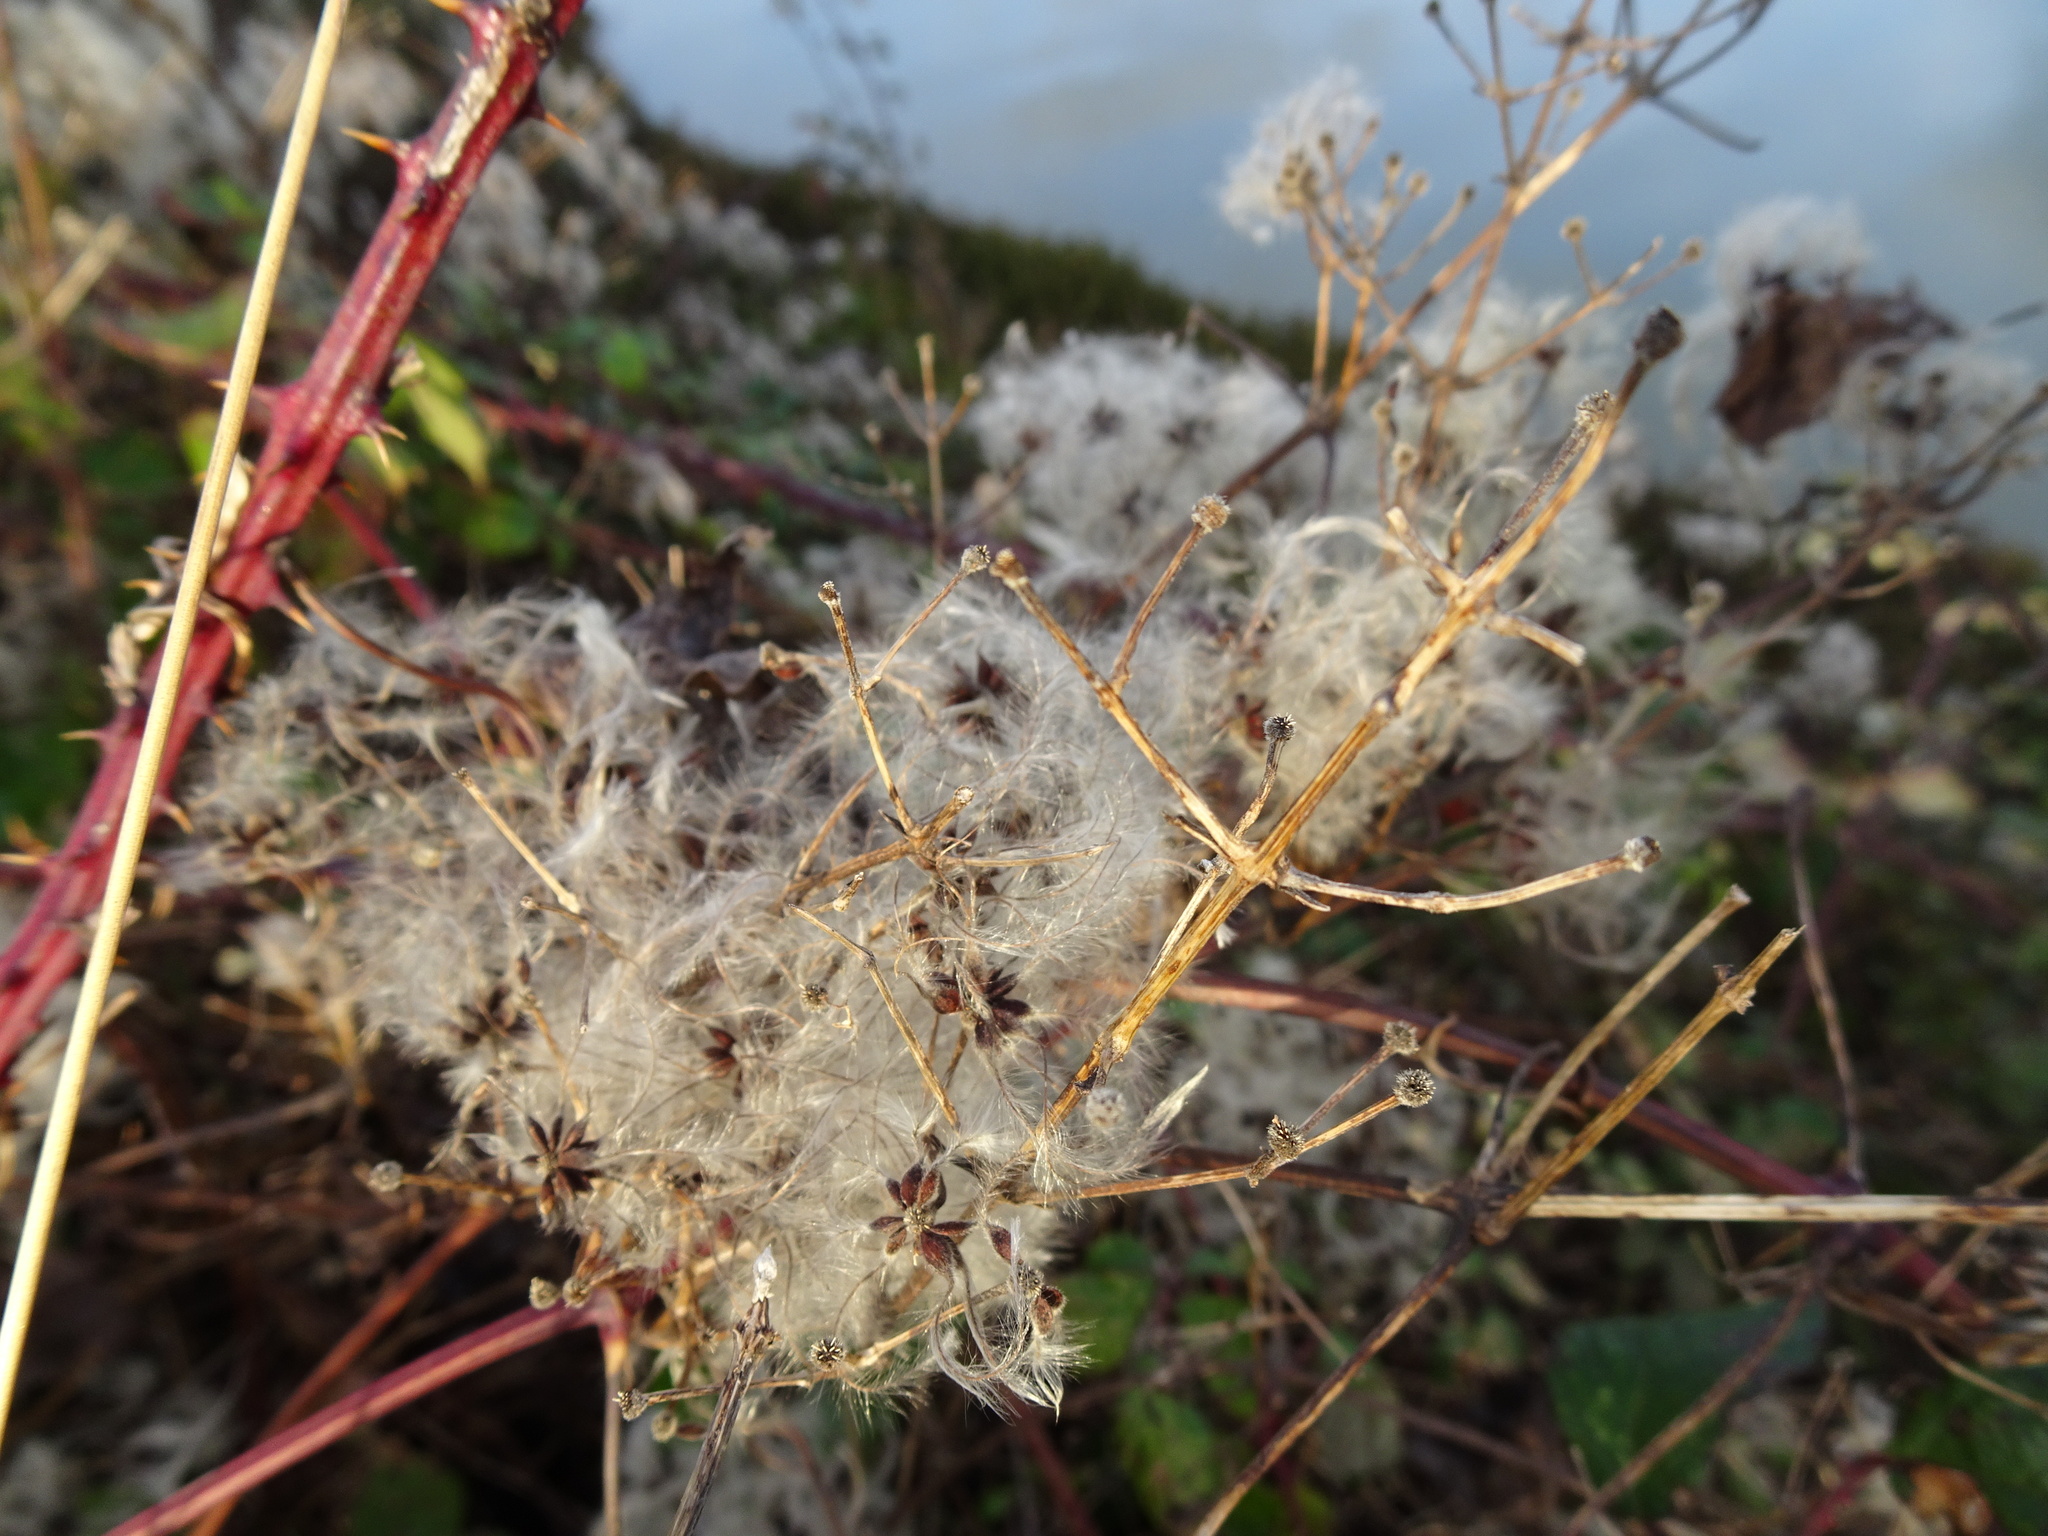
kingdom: Plantae
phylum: Tracheophyta
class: Magnoliopsida
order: Ranunculales
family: Ranunculaceae
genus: Clematis
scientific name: Clematis vitalba
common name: Evergreen clematis
